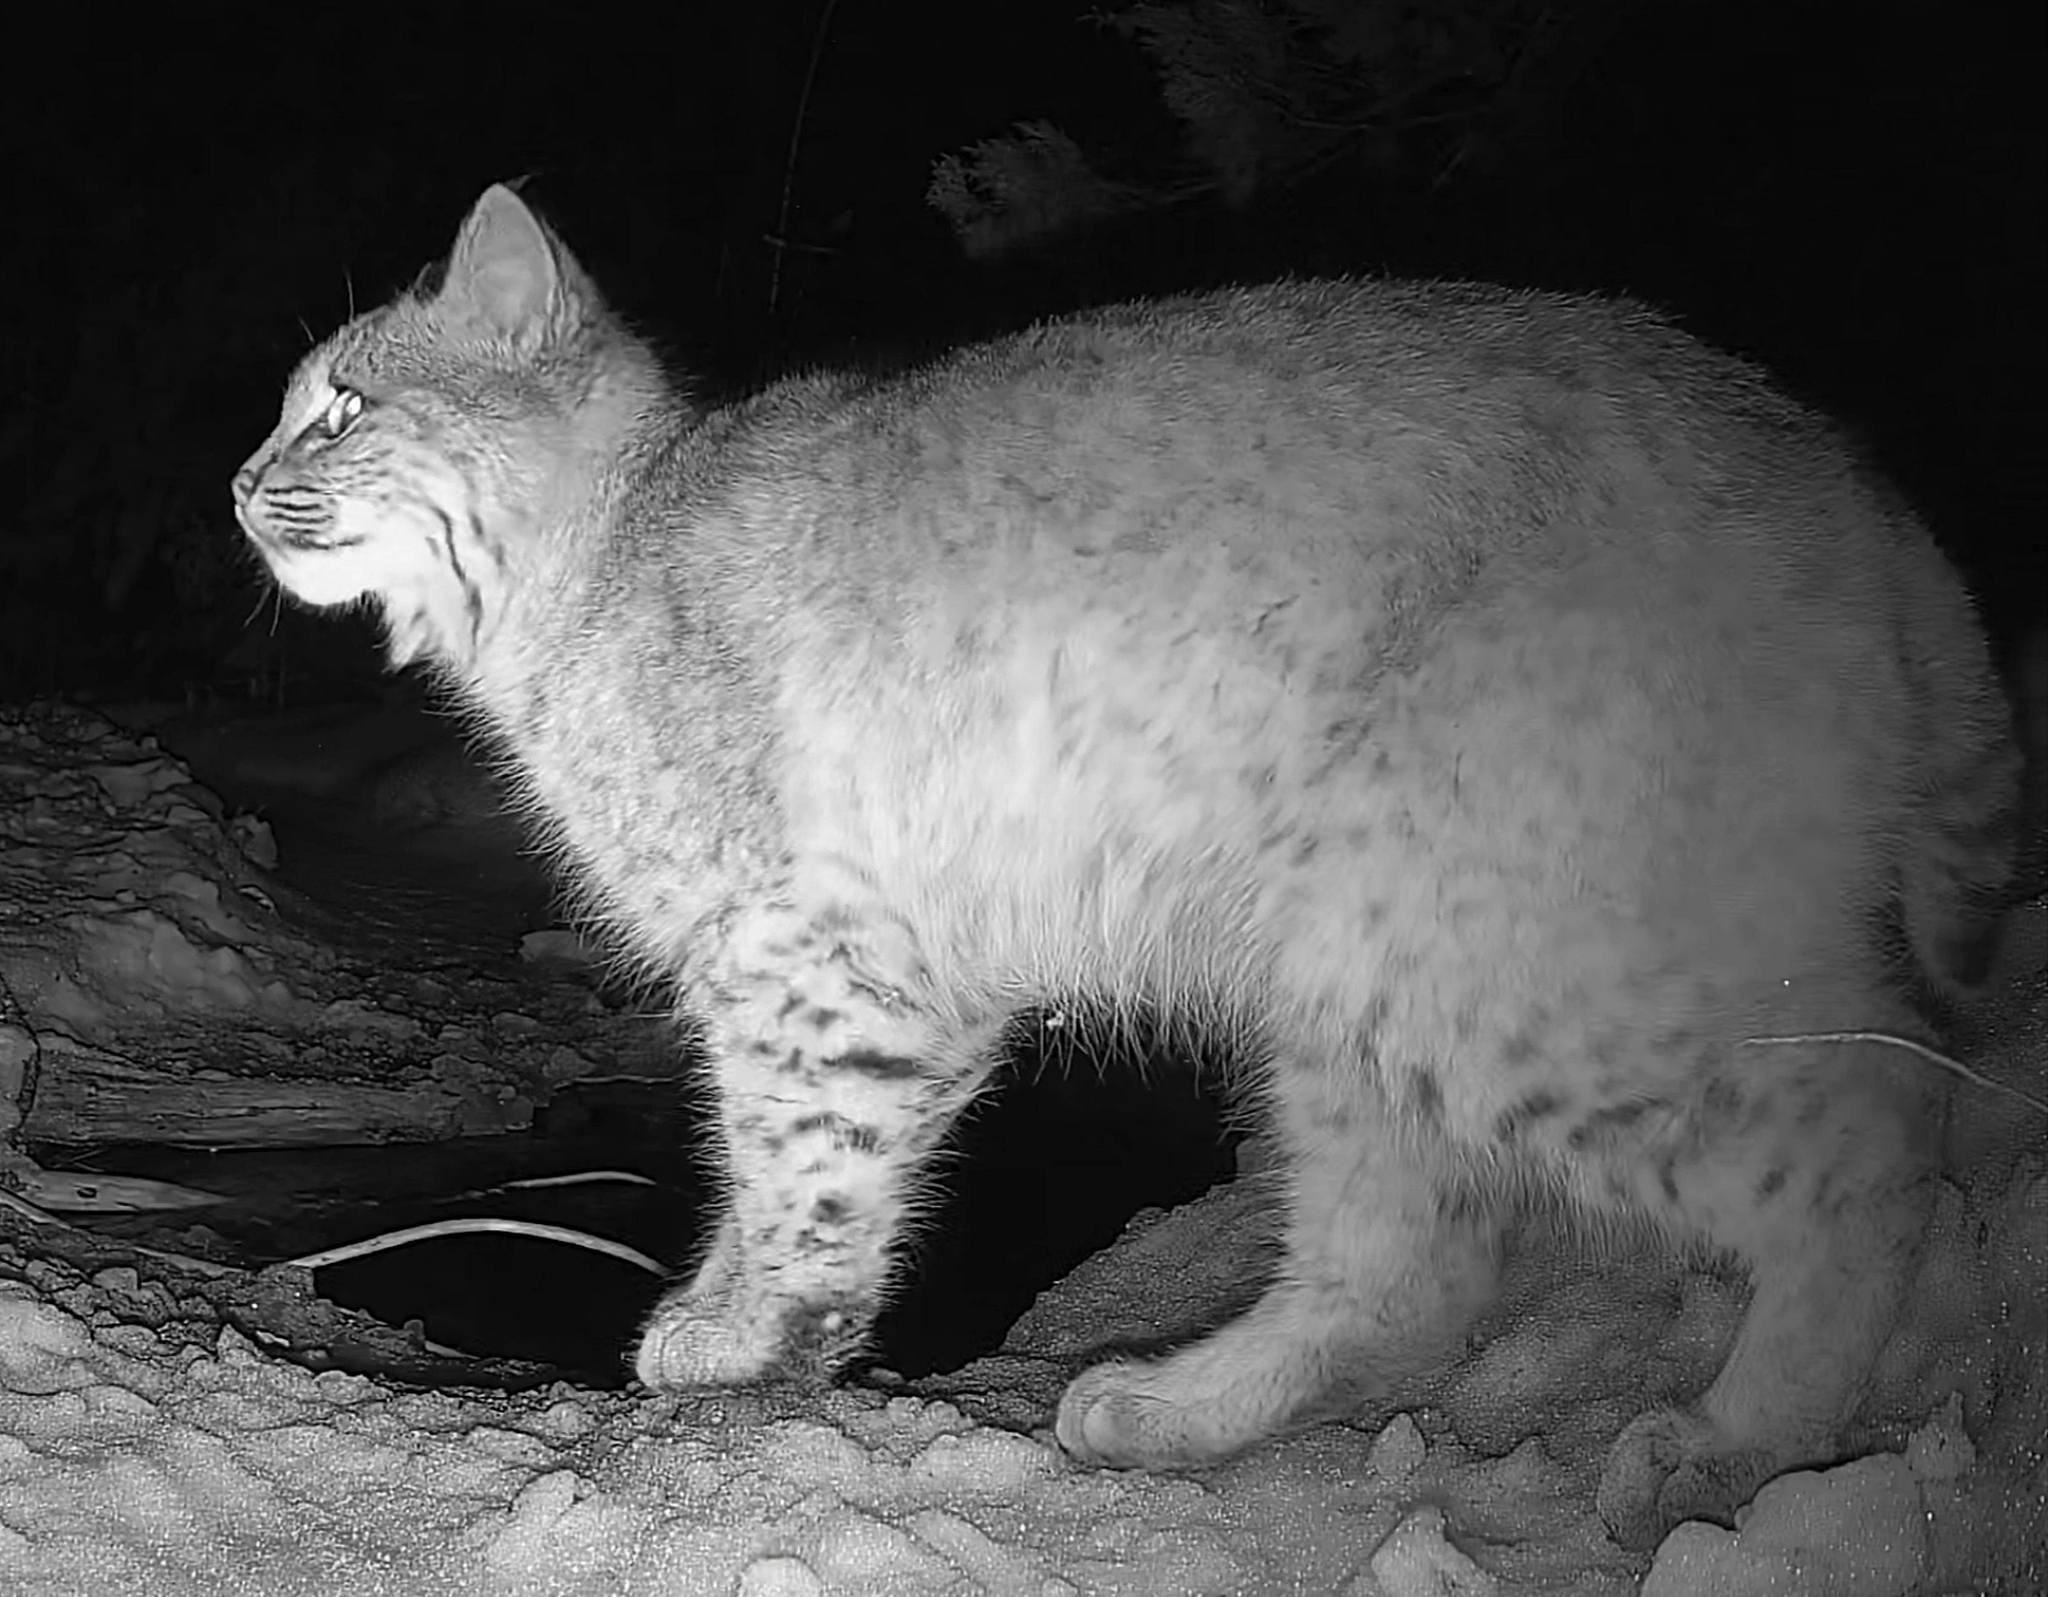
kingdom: Animalia
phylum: Chordata
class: Mammalia
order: Carnivora
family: Felidae
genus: Lynx
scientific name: Lynx rufus
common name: Bobcat
